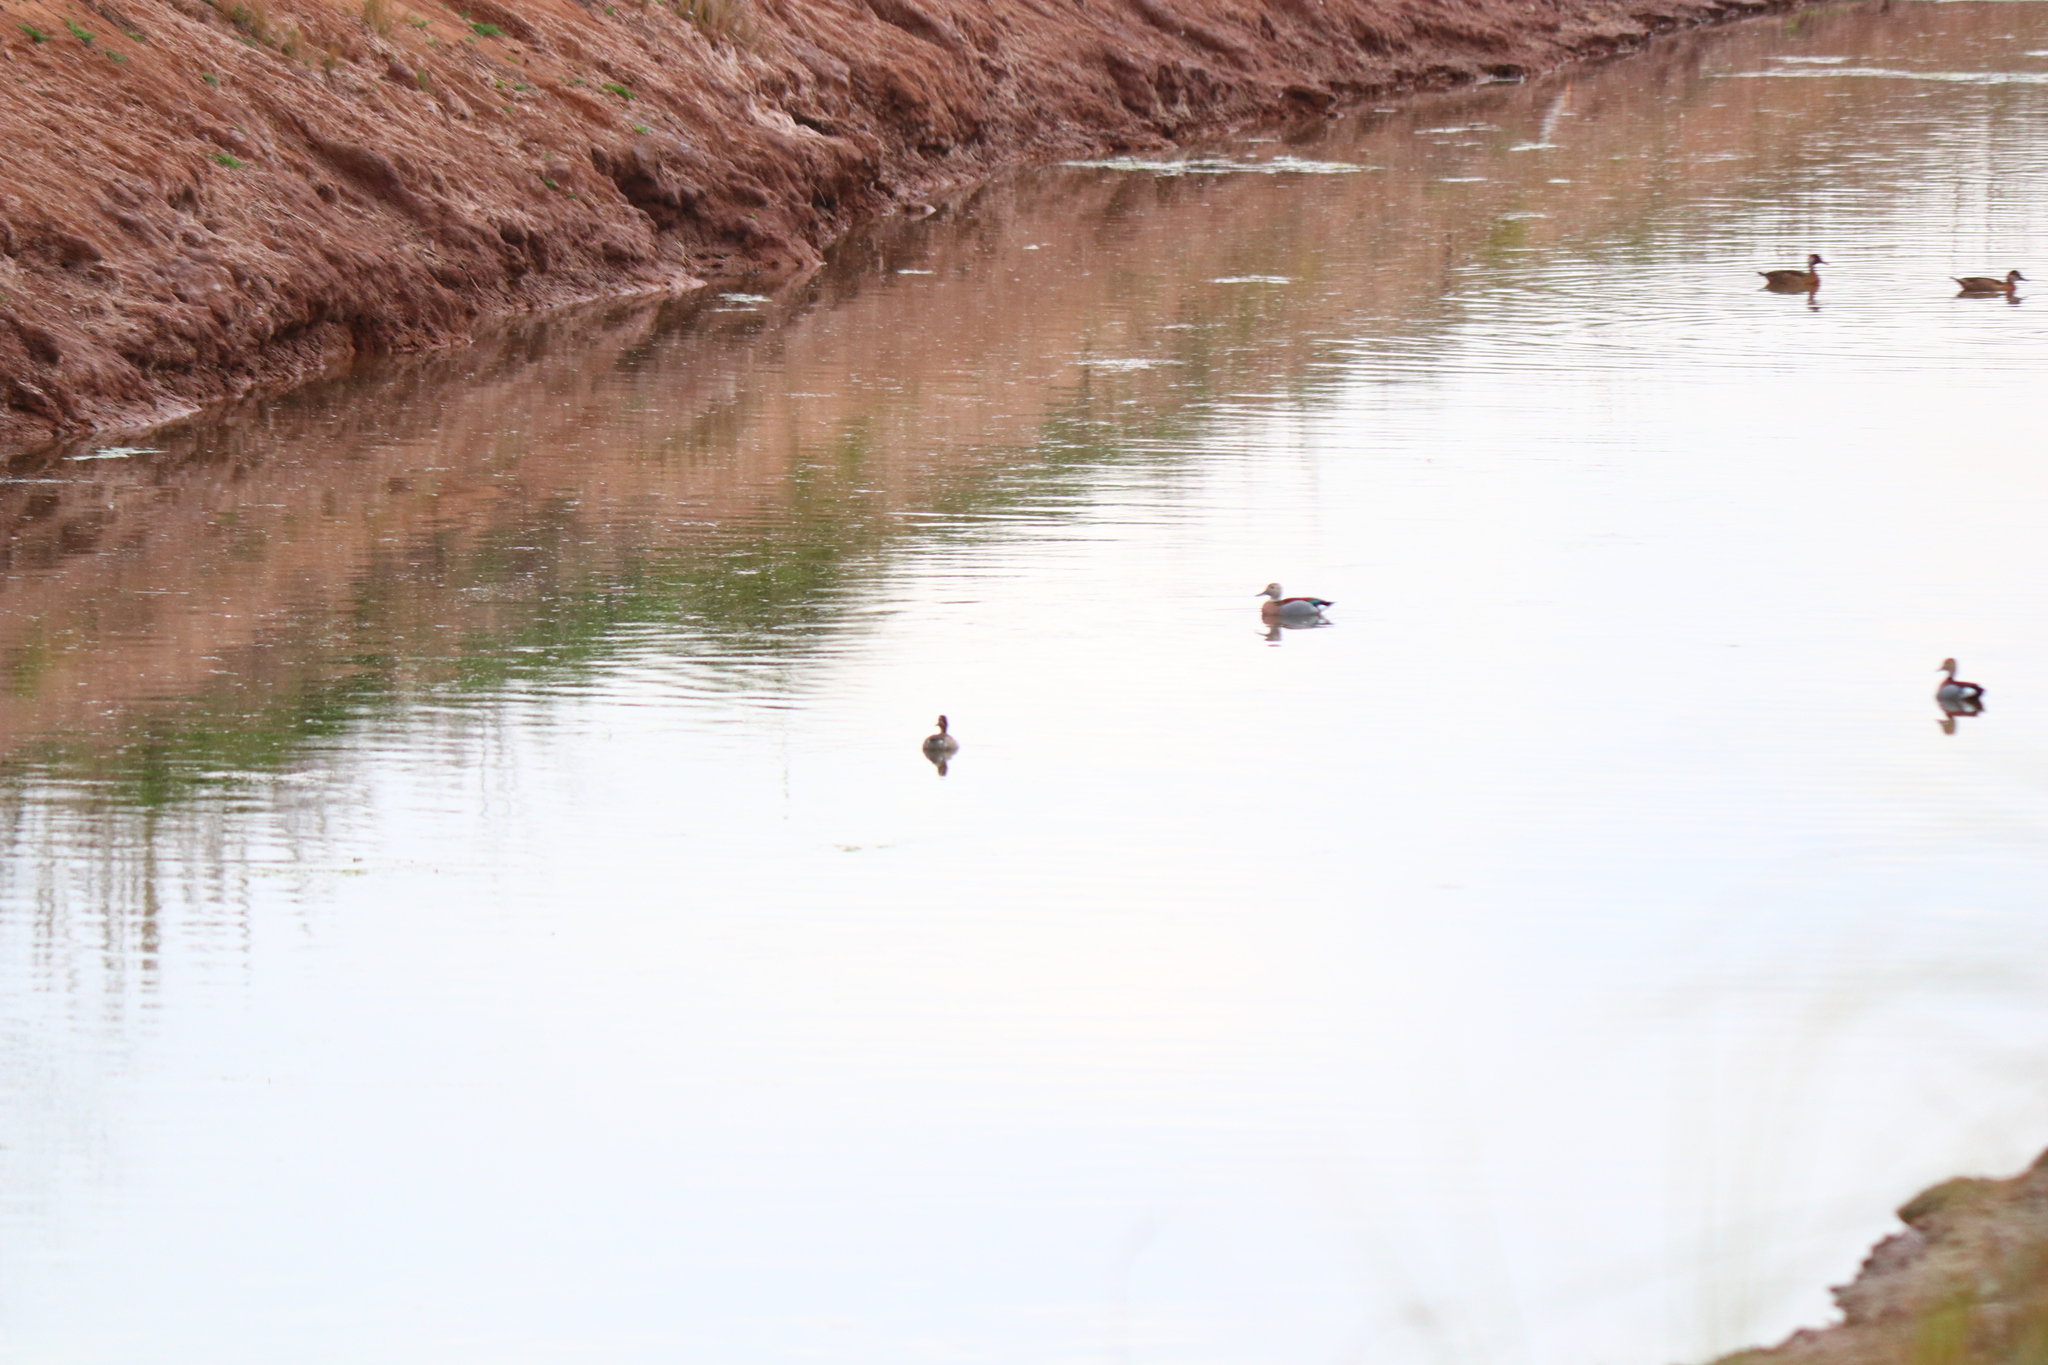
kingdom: Animalia
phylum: Chordata
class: Aves
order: Anseriformes
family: Anatidae
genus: Callonetta
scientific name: Callonetta leucophrys
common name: Ringed teal
